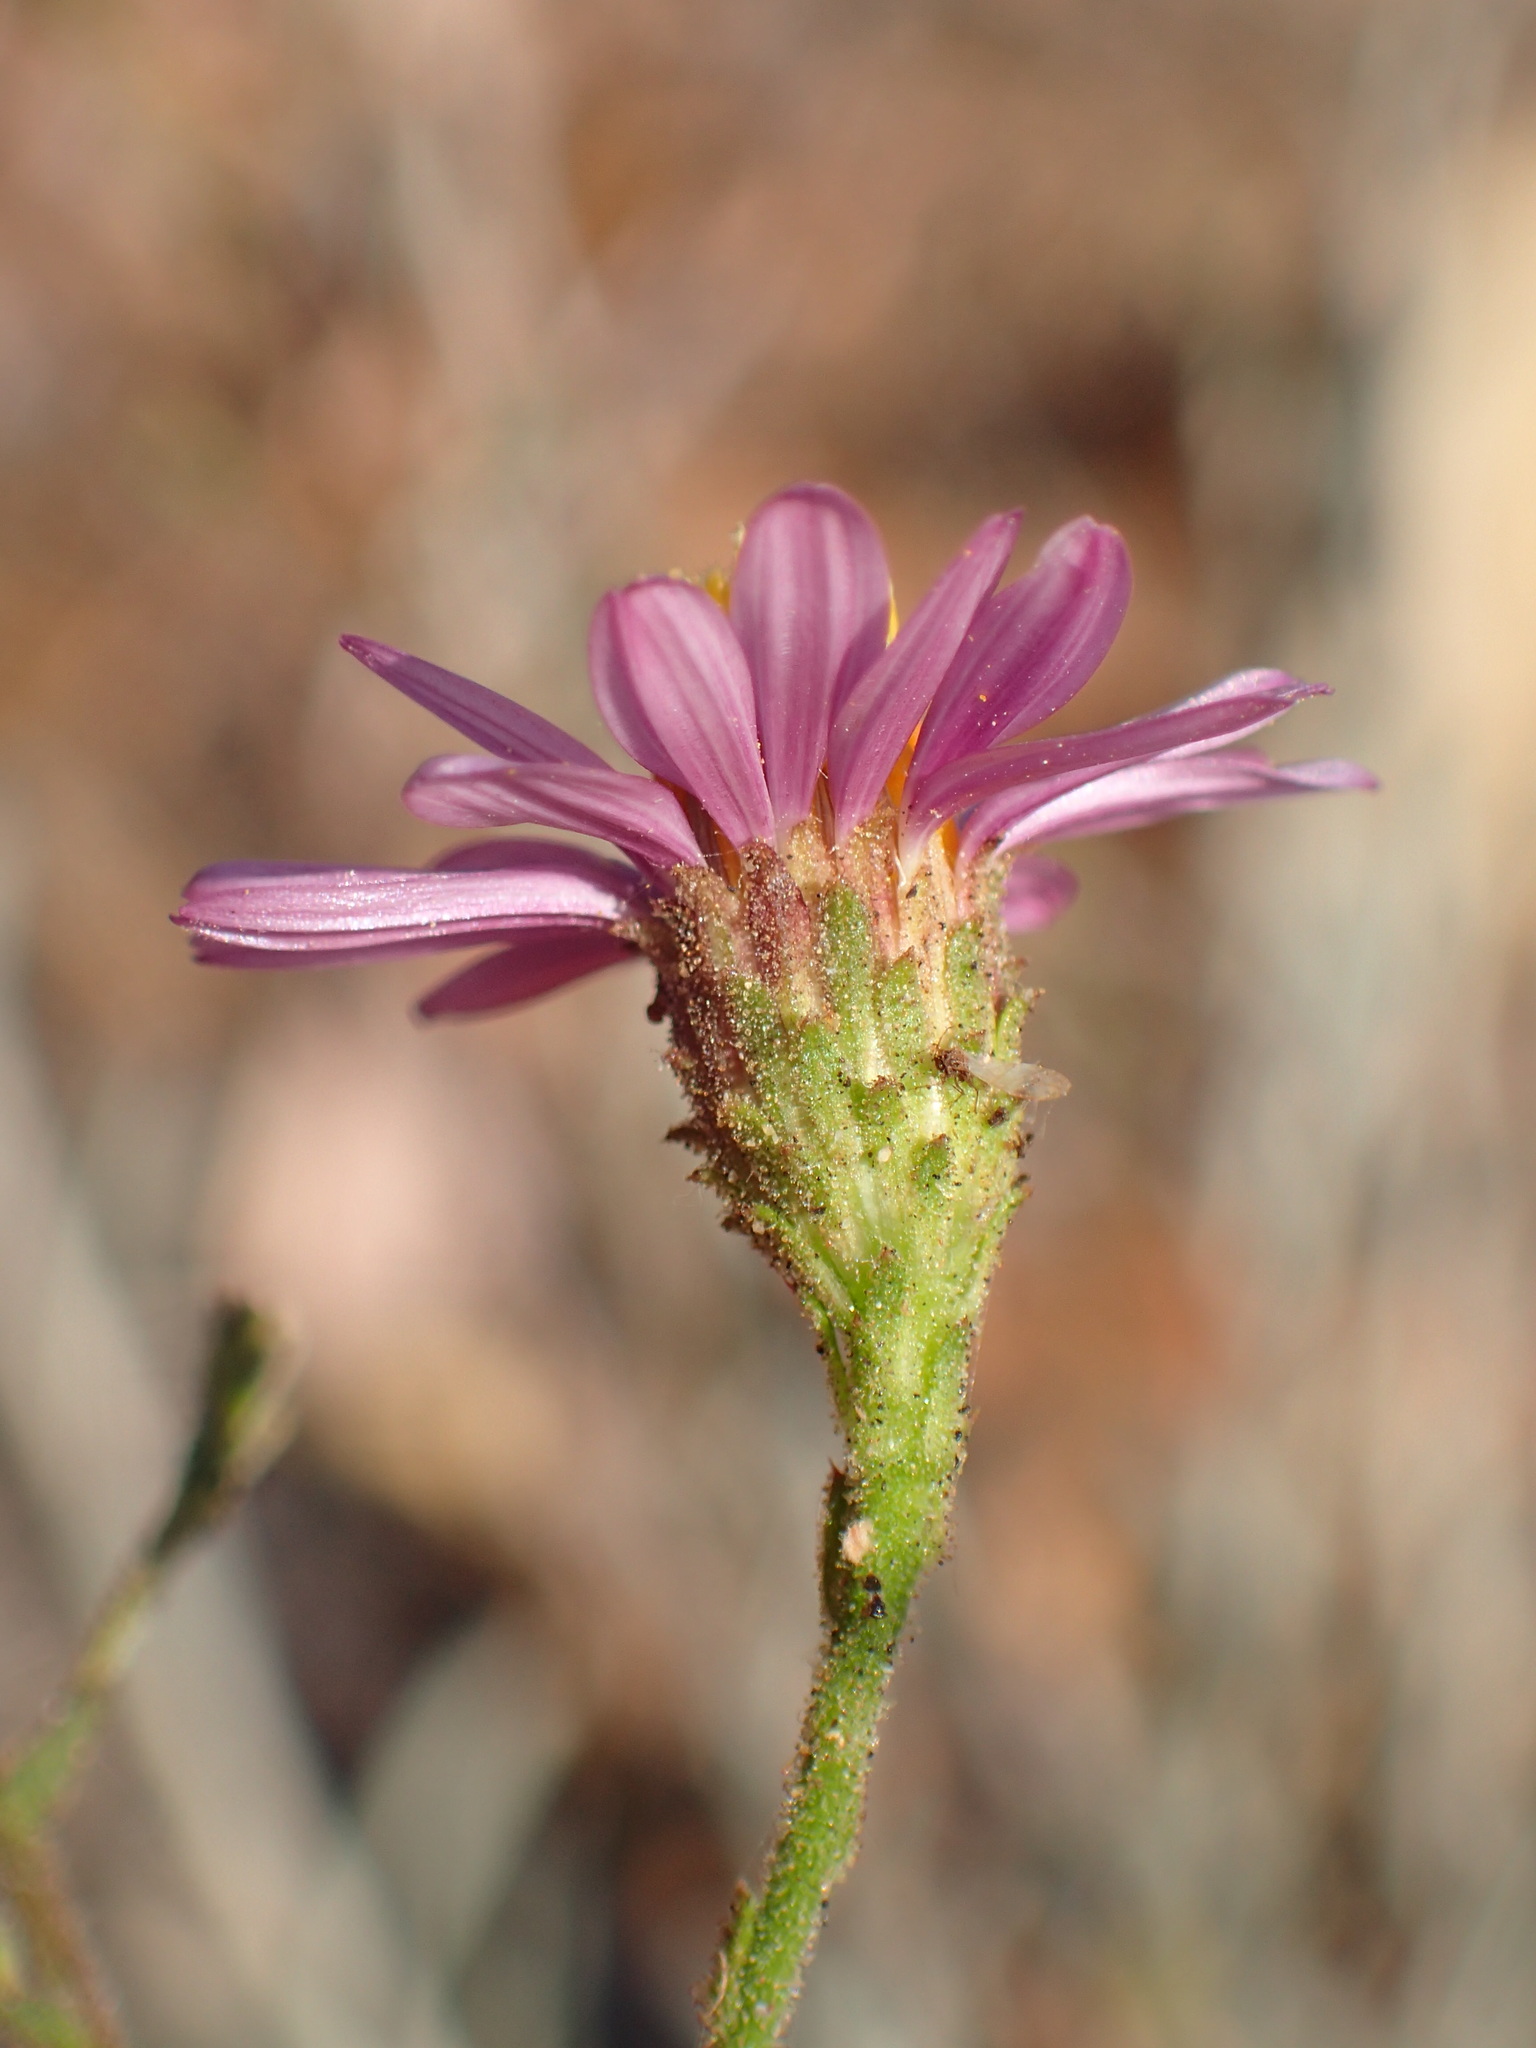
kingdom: Plantae
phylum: Tracheophyta
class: Magnoliopsida
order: Asterales
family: Asteraceae
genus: Corethrogyne
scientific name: Corethrogyne filaginifolia
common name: Sand-aster
